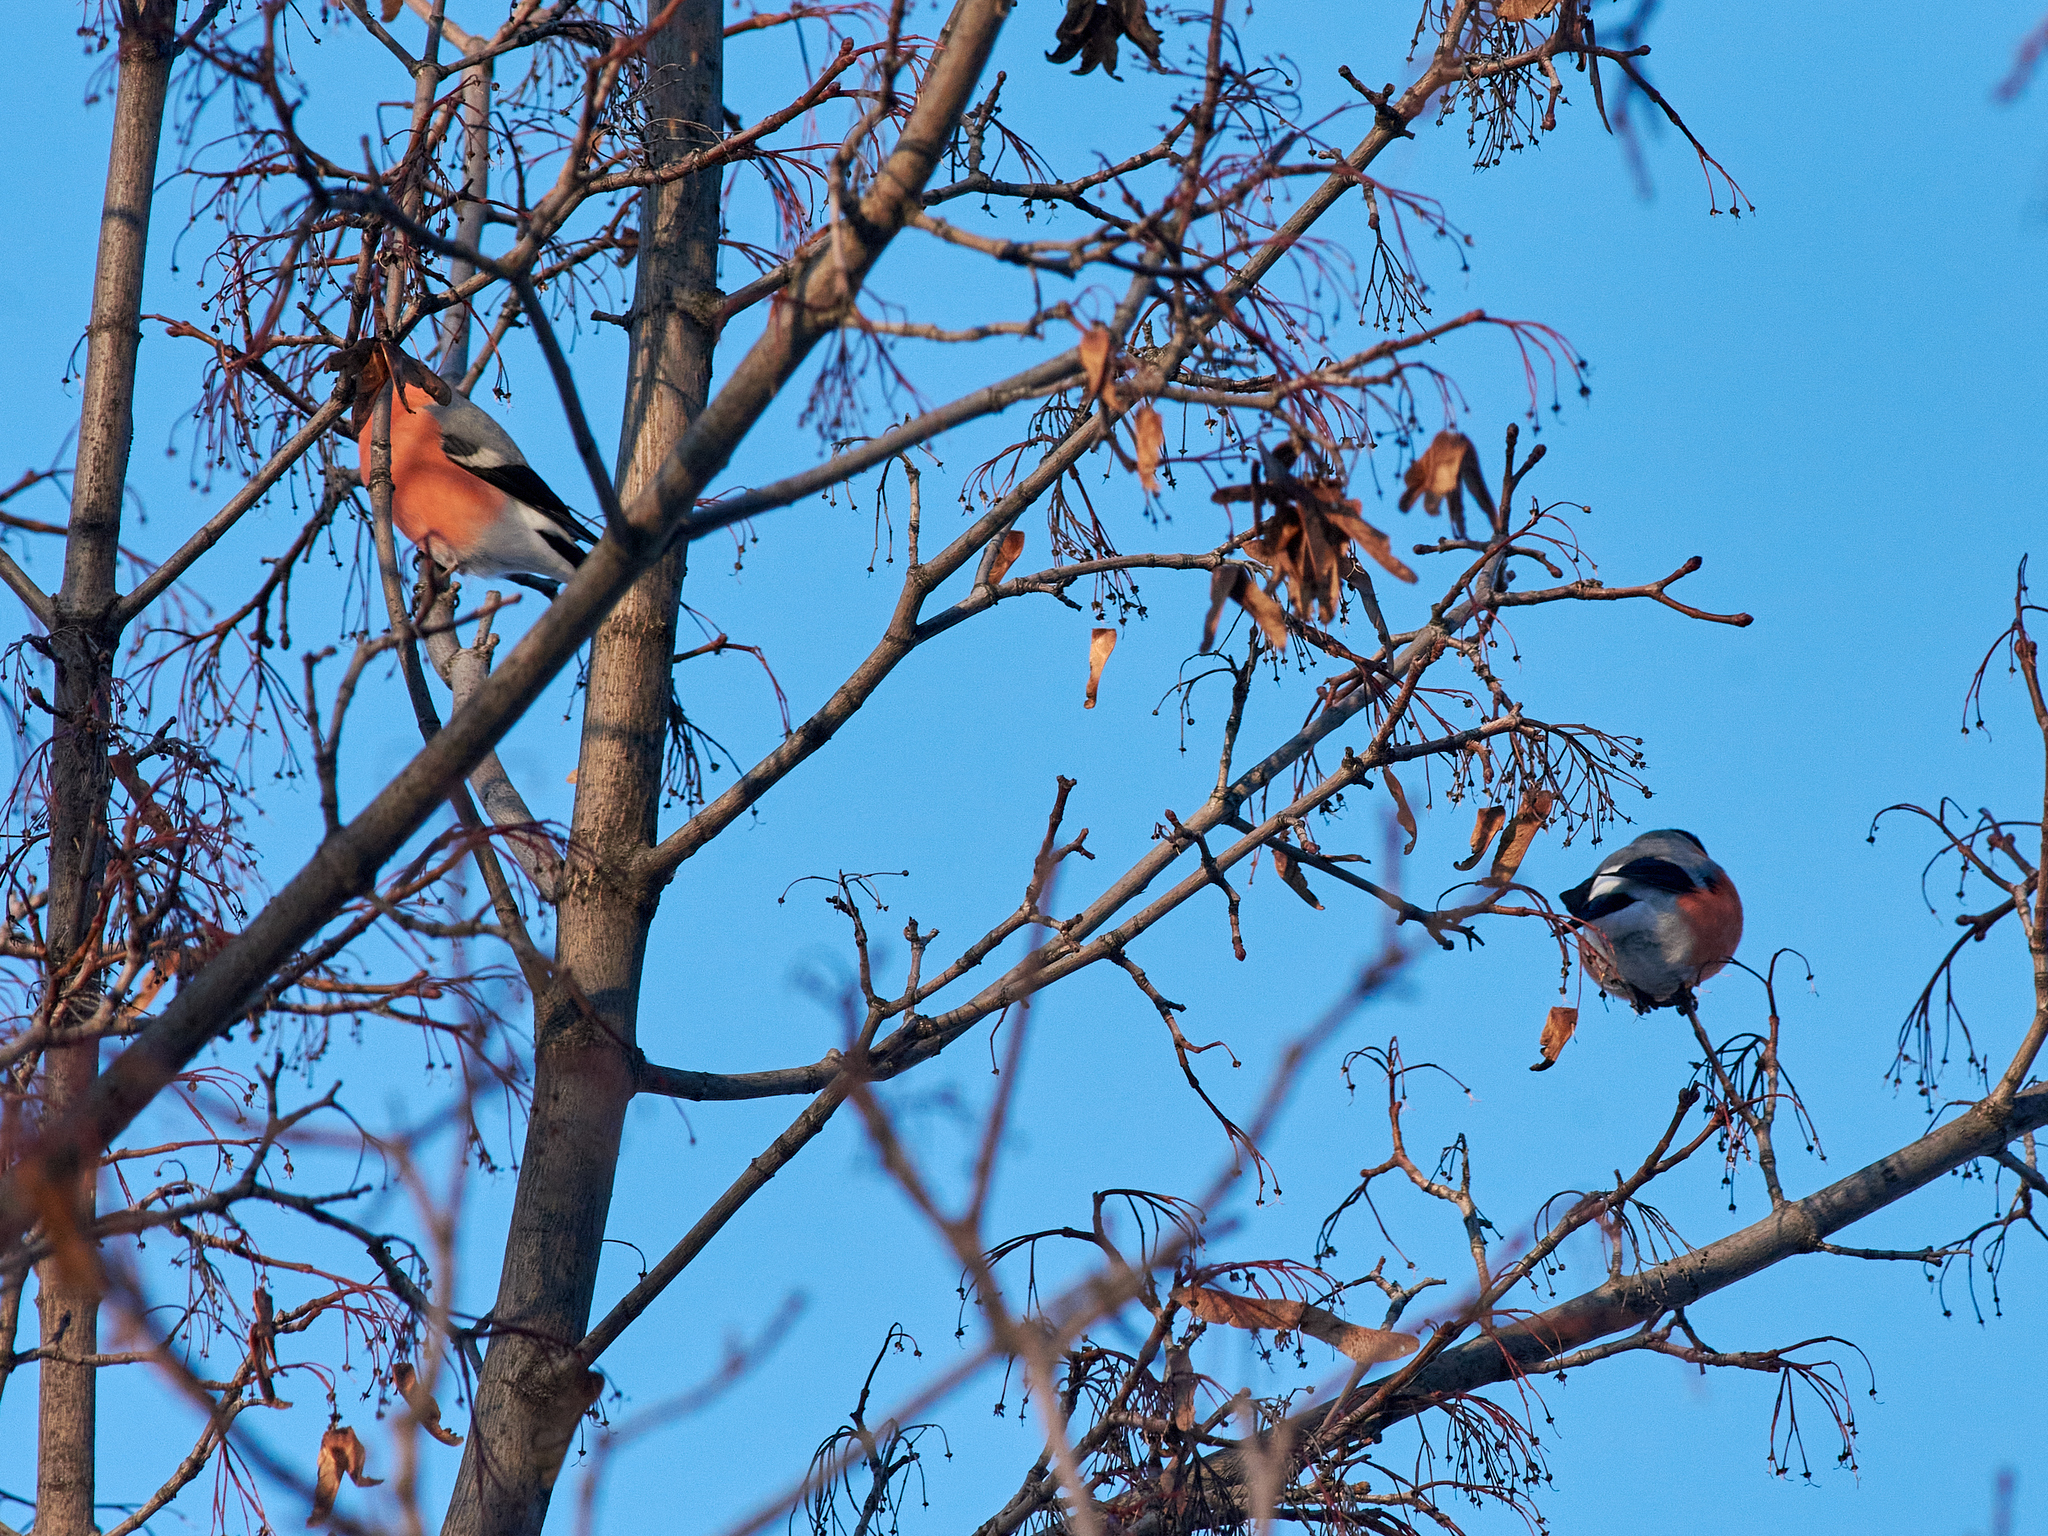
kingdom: Animalia
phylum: Chordata
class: Aves
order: Passeriformes
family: Fringillidae
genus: Pyrrhula
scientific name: Pyrrhula pyrrhula
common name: Eurasian bullfinch
